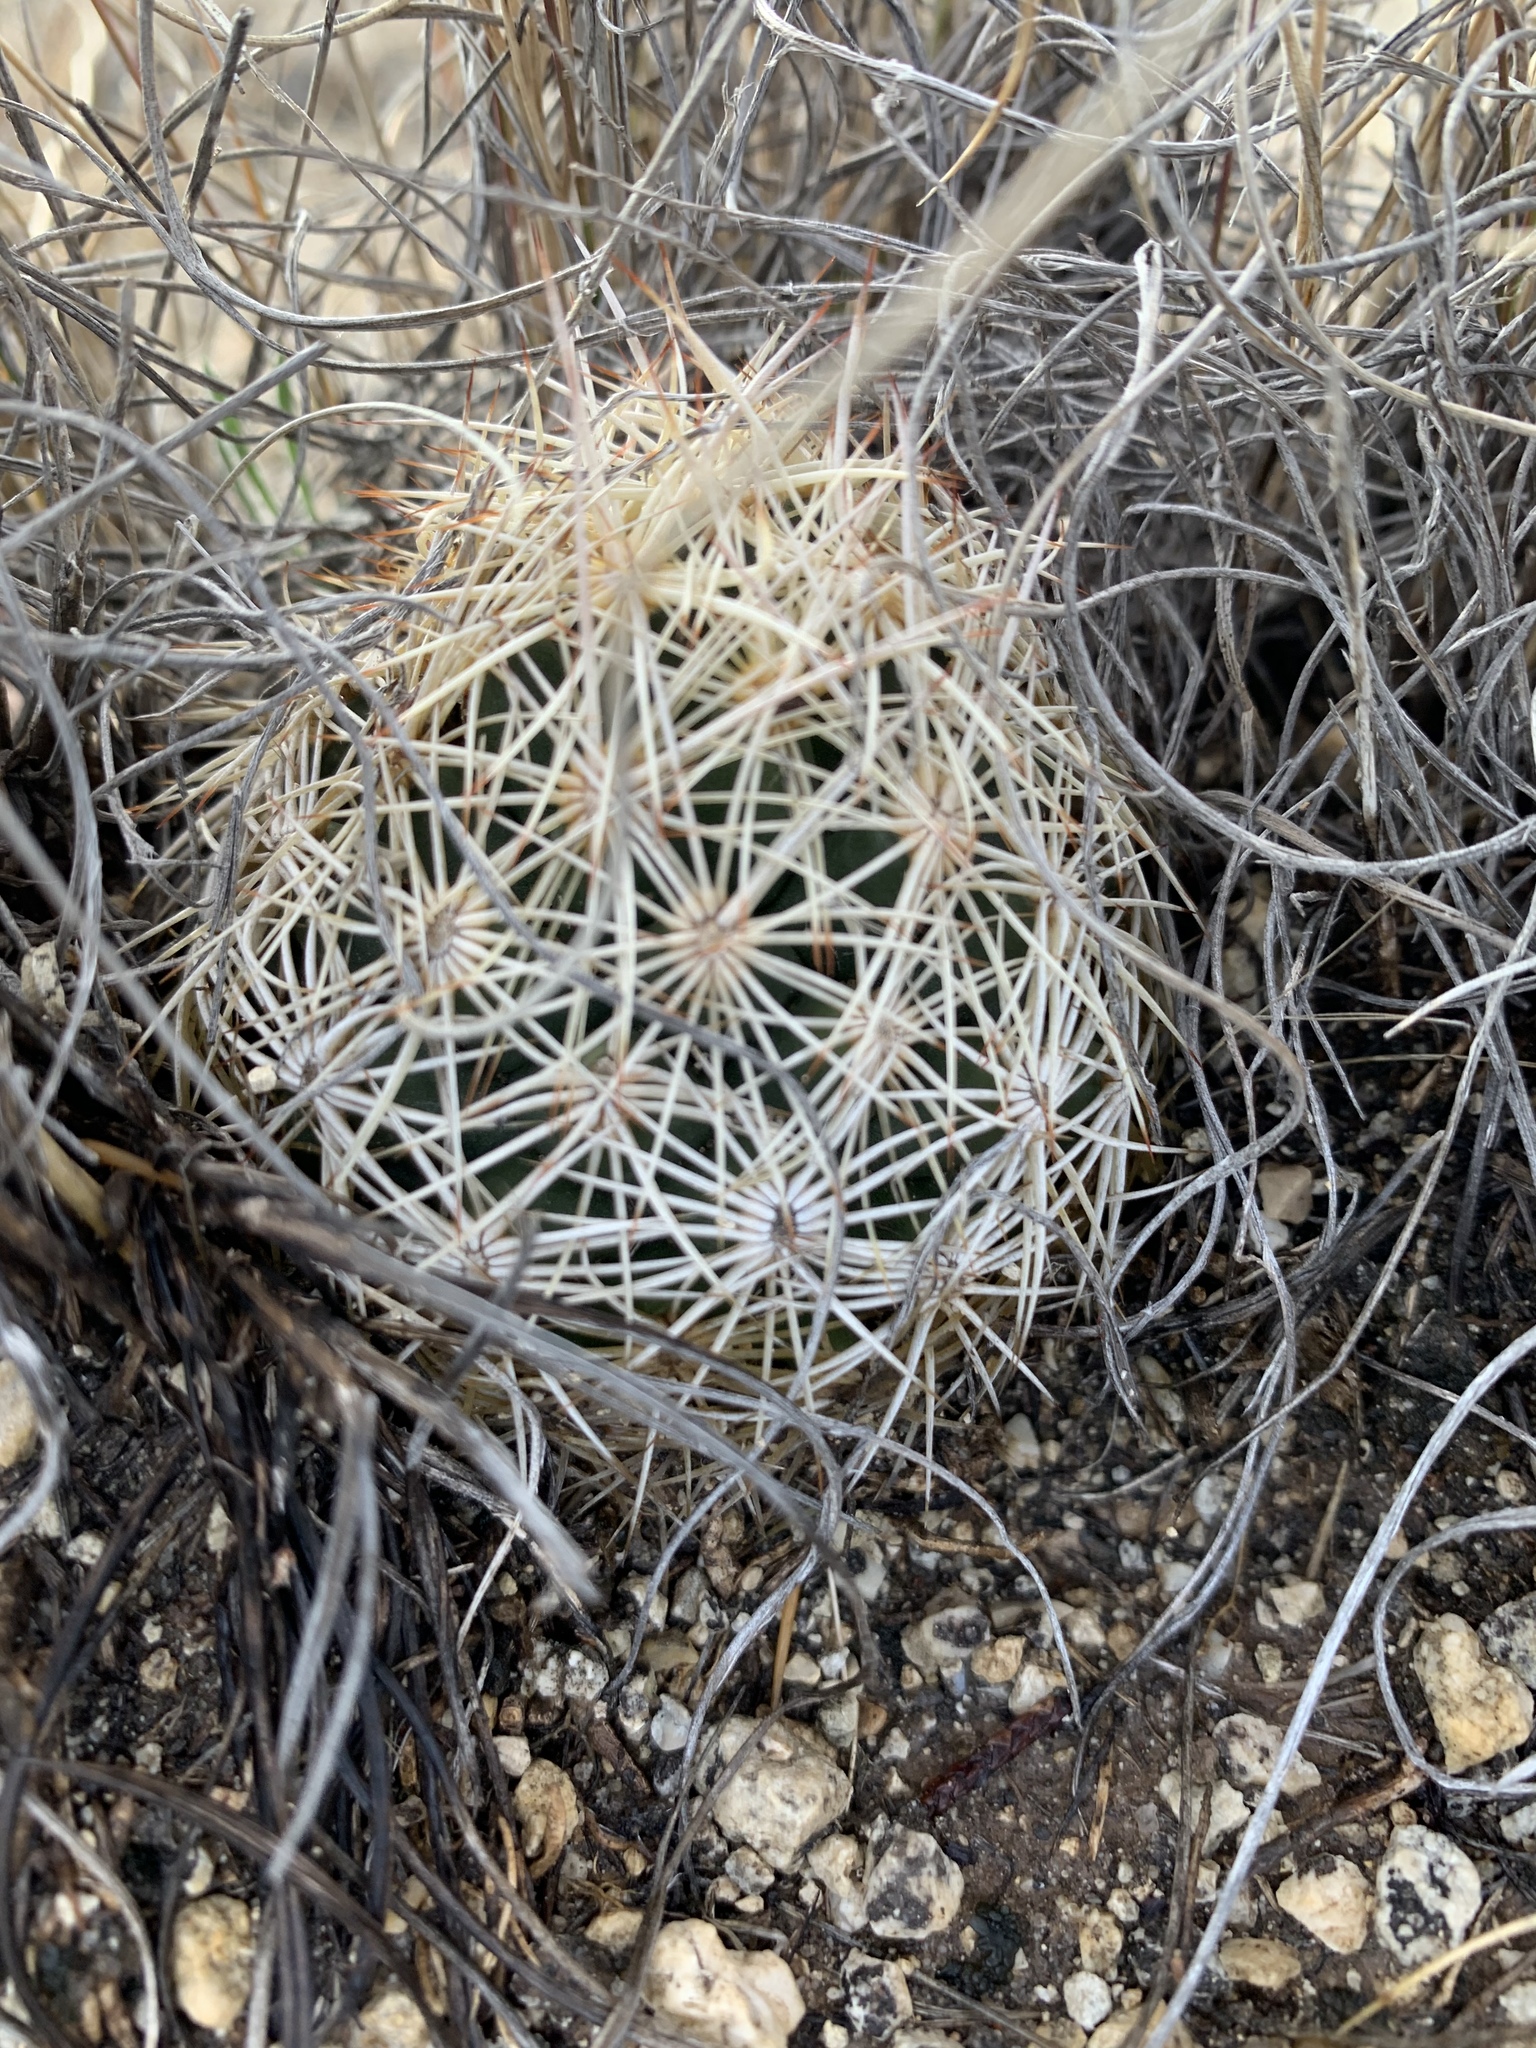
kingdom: Plantae
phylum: Tracheophyta
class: Magnoliopsida
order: Caryophyllales
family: Cactaceae
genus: Coryphantha
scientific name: Coryphantha echinus
